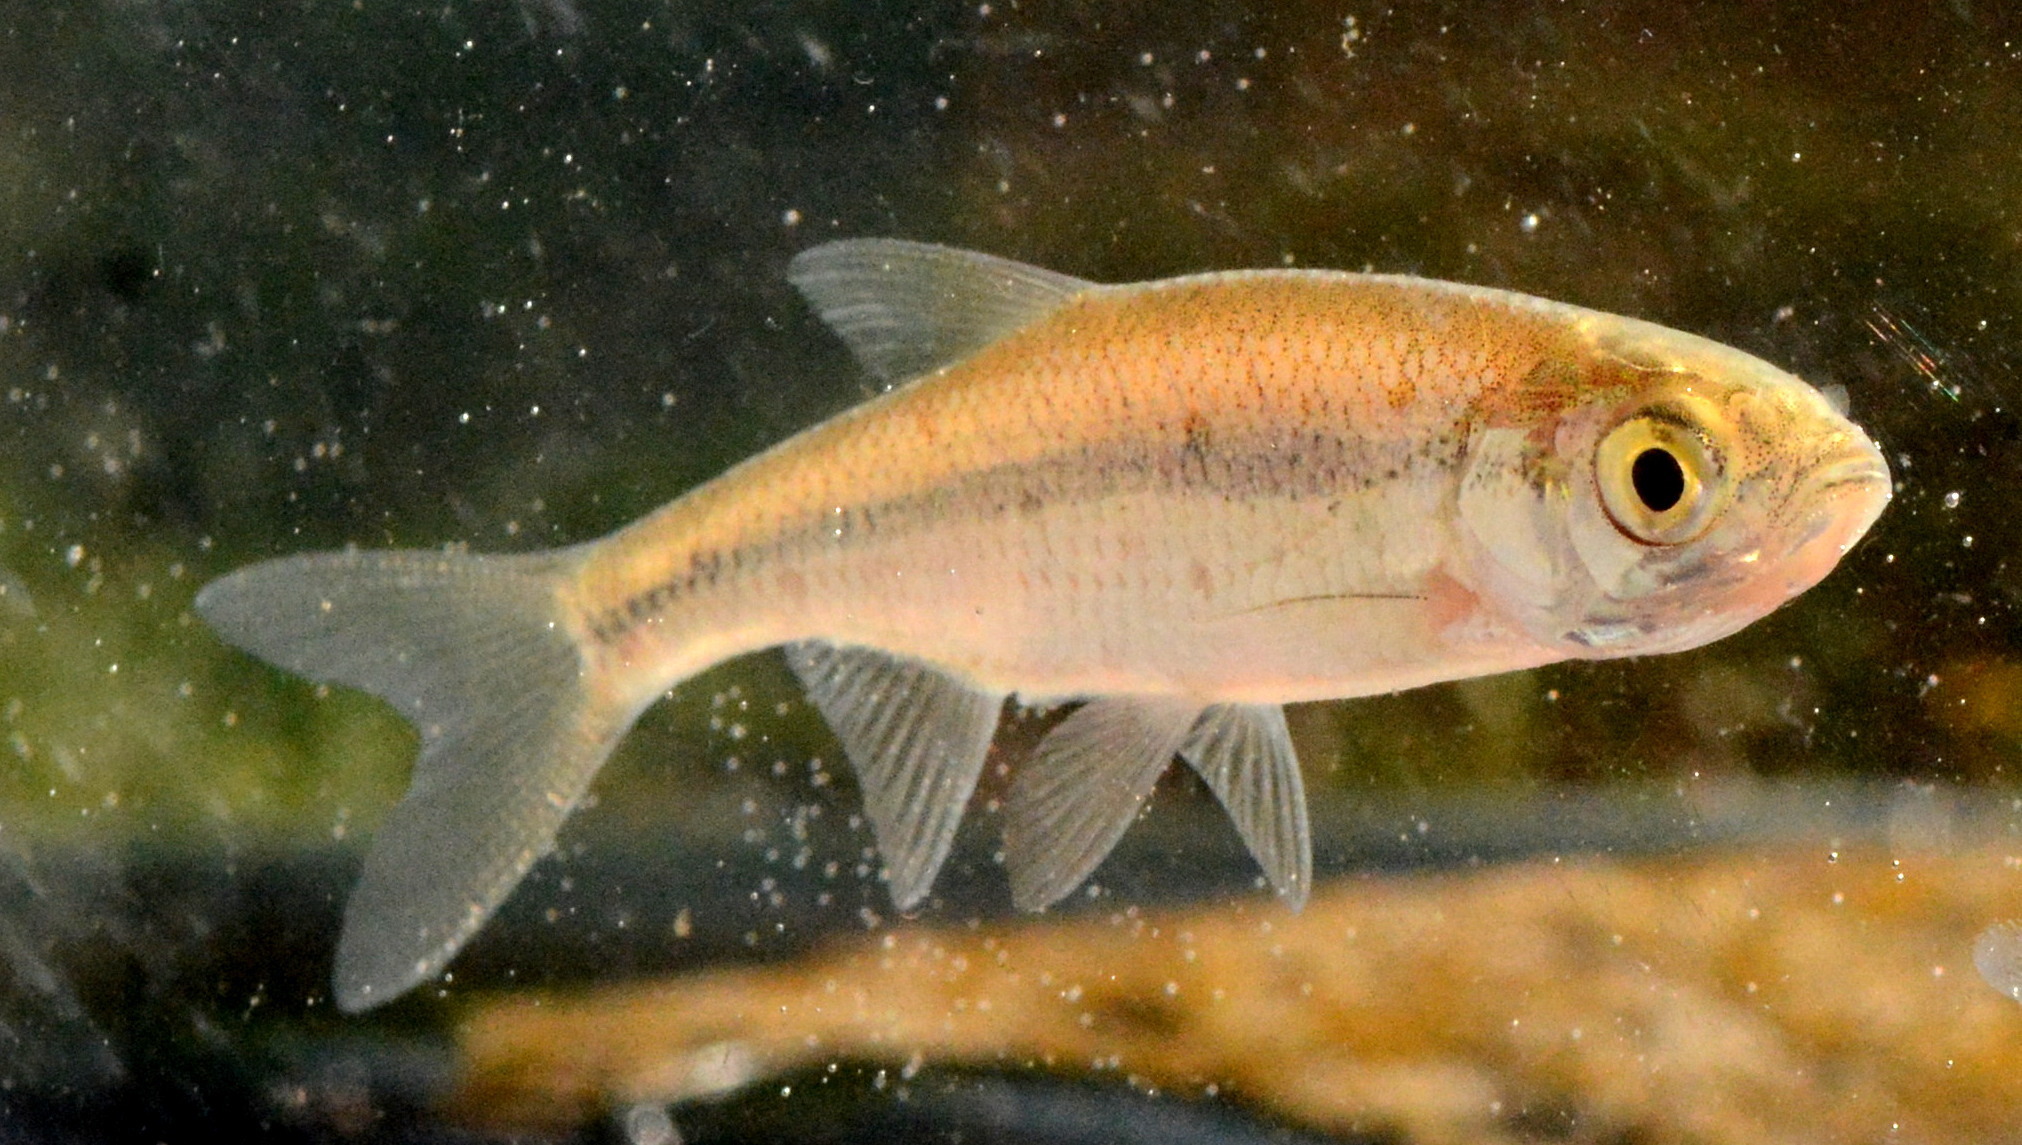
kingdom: Animalia
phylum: Chordata
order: Cypriniformes
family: Cyprinidae
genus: Notemigonus
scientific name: Notemigonus crysoleucas
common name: Golden shiner
